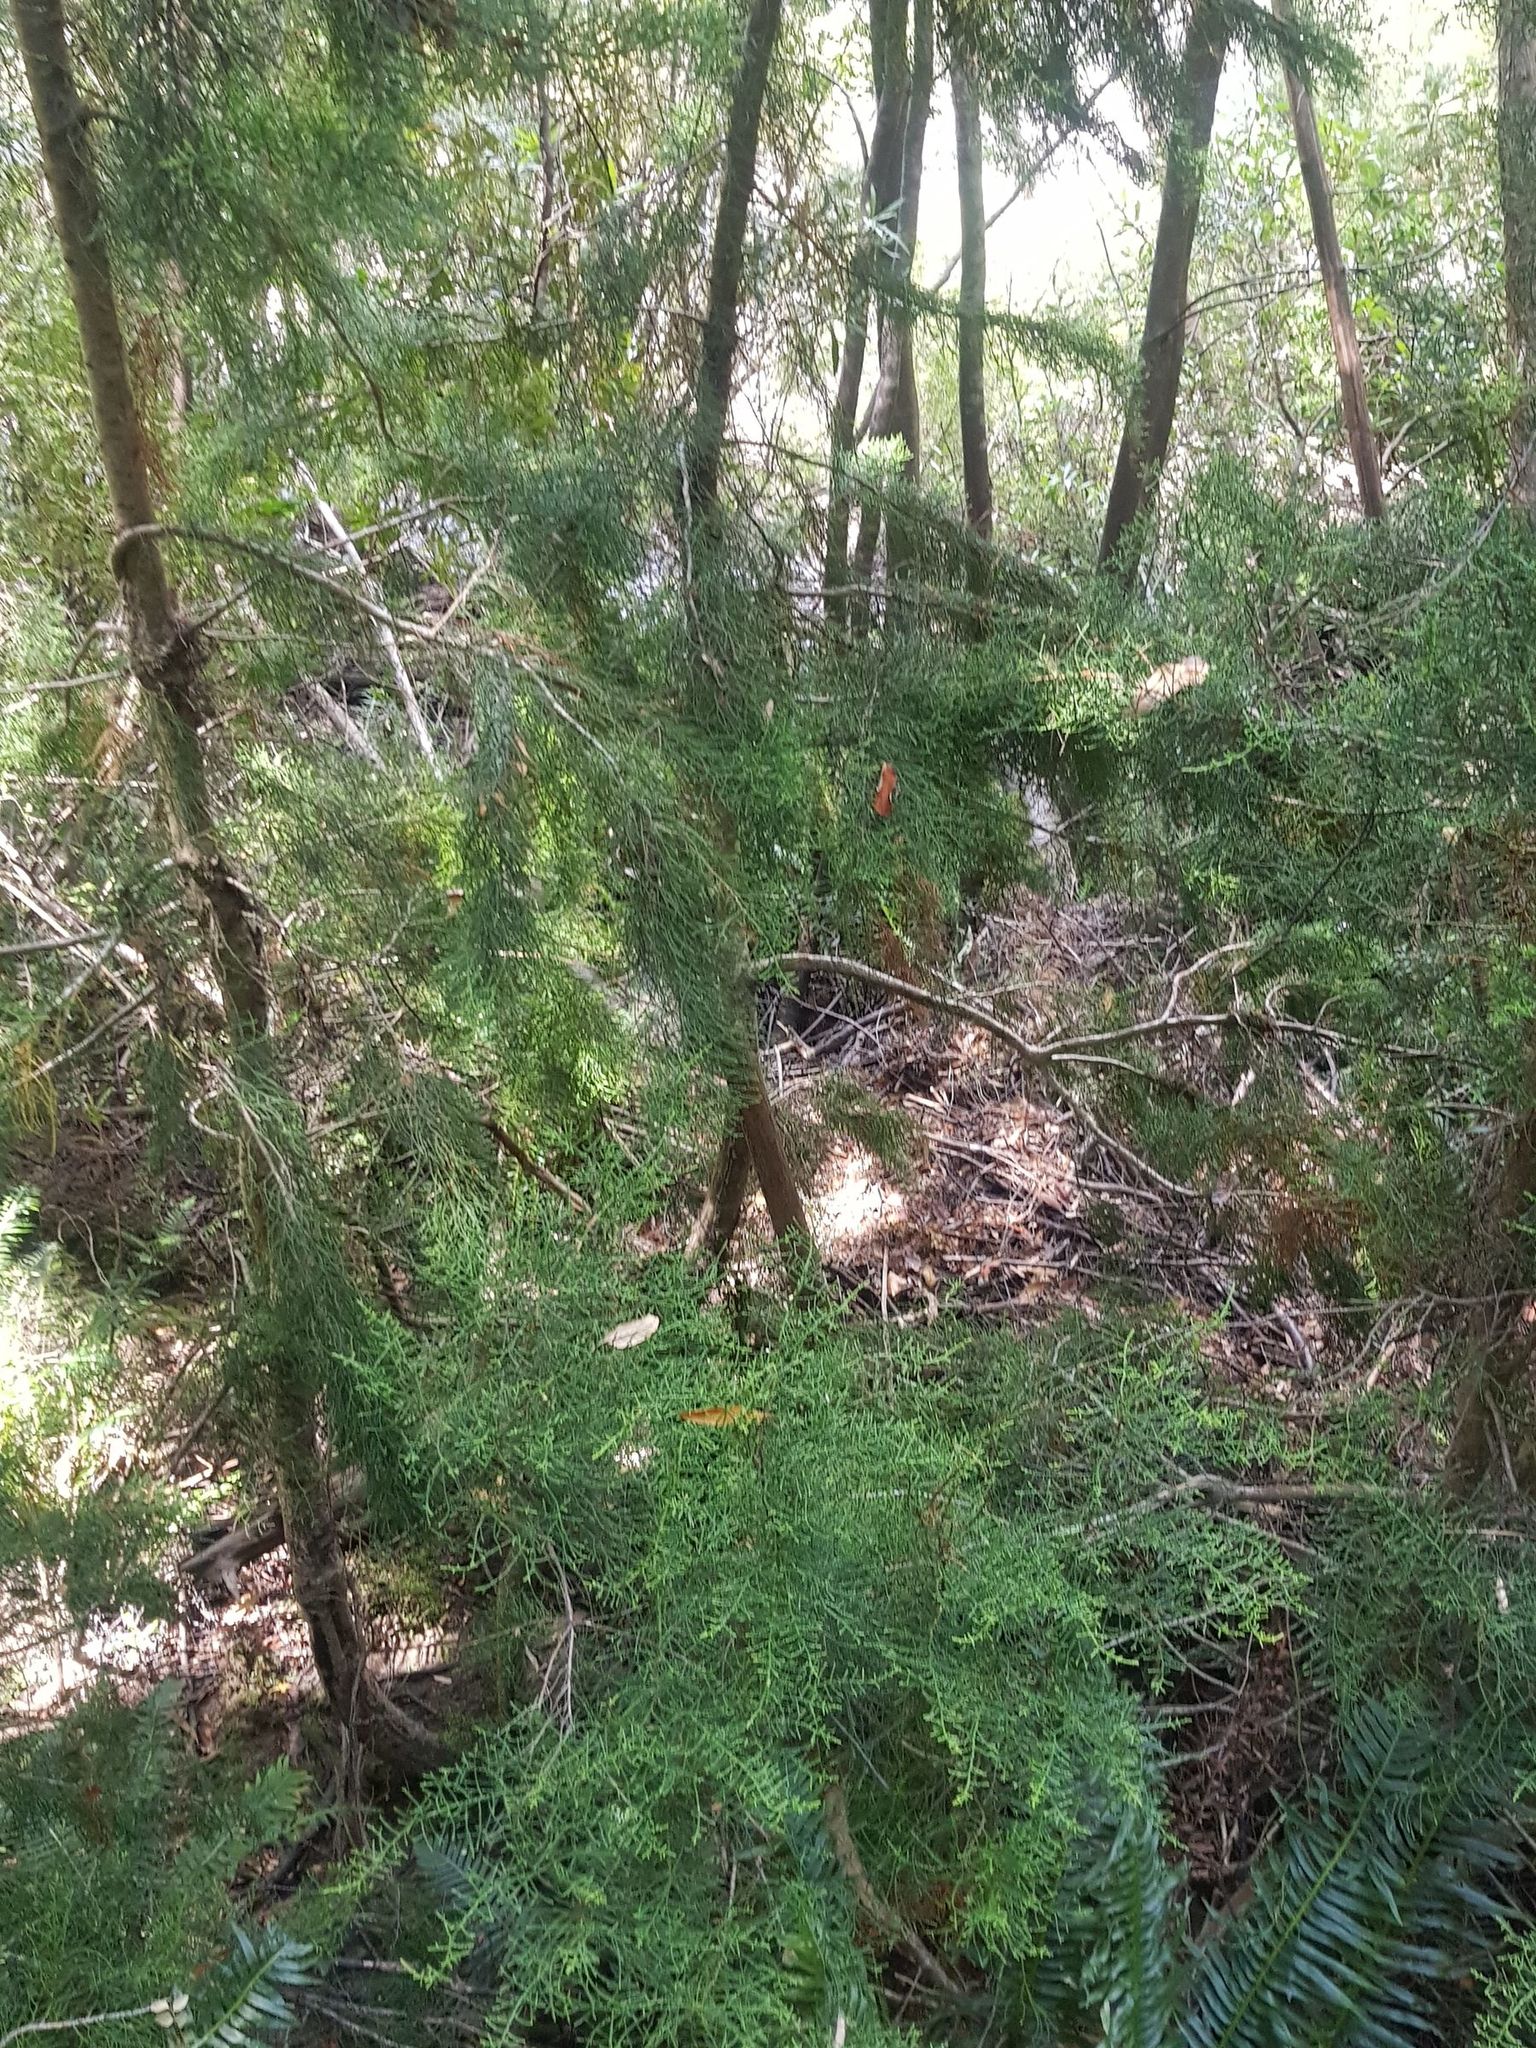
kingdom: Plantae
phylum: Tracheophyta
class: Pinopsida
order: Pinales
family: Podocarpaceae
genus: Lagarostrobos
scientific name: Lagarostrobos franklinii
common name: Huon pine
